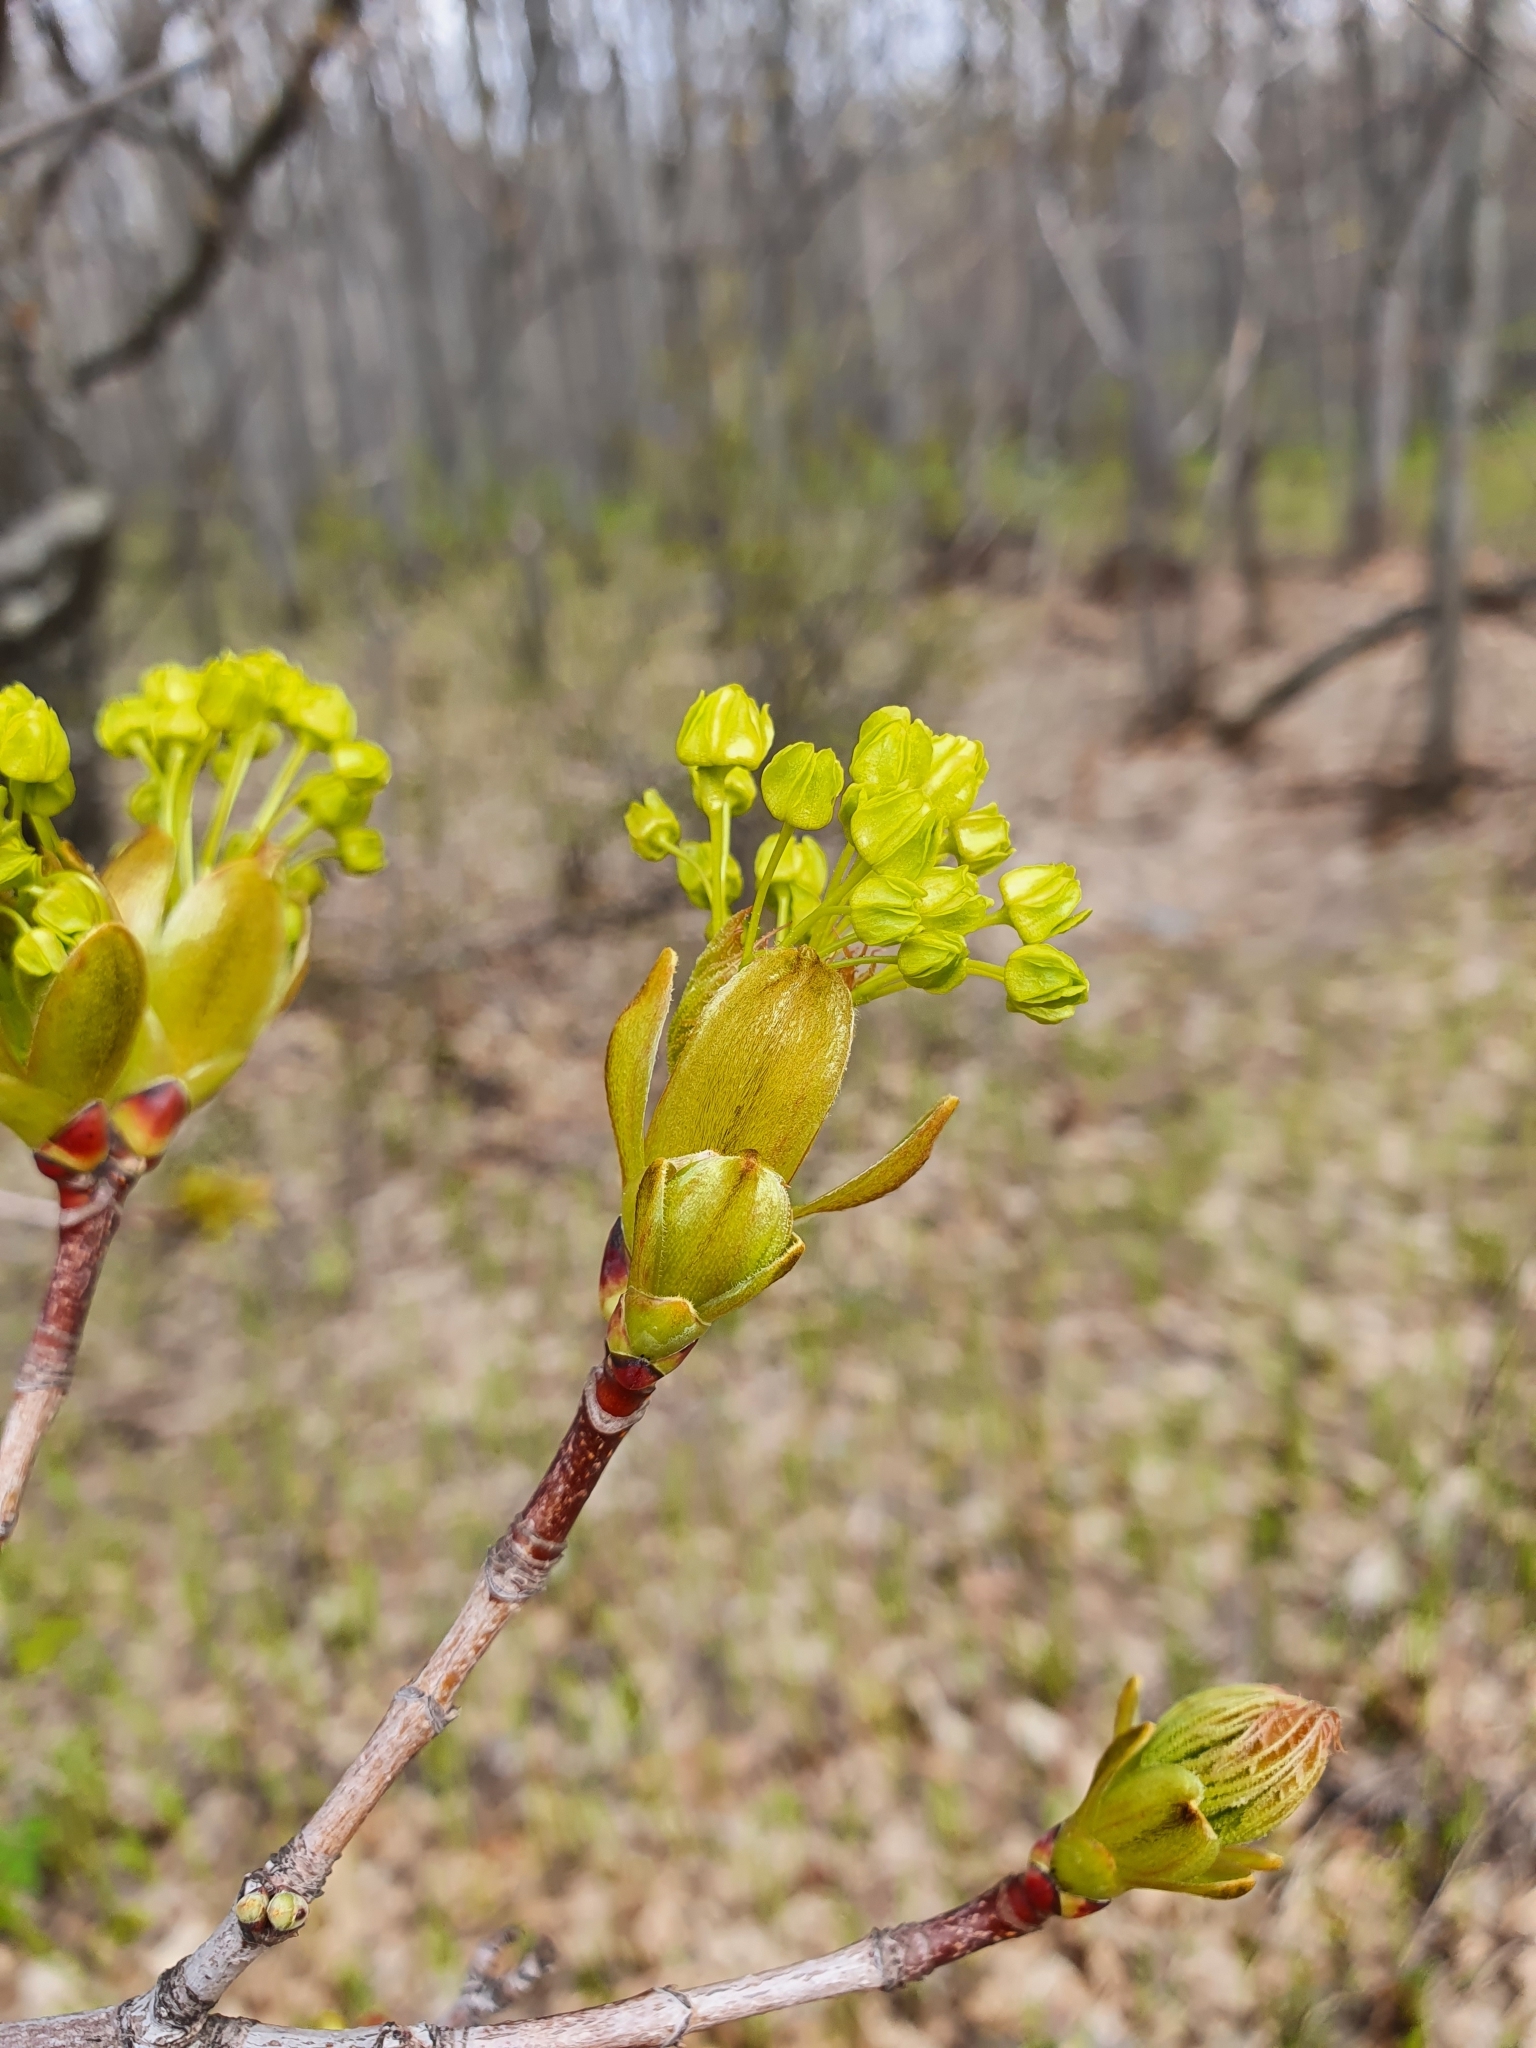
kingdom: Plantae
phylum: Tracheophyta
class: Magnoliopsida
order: Sapindales
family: Sapindaceae
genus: Acer
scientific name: Acer platanoides
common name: Norway maple
